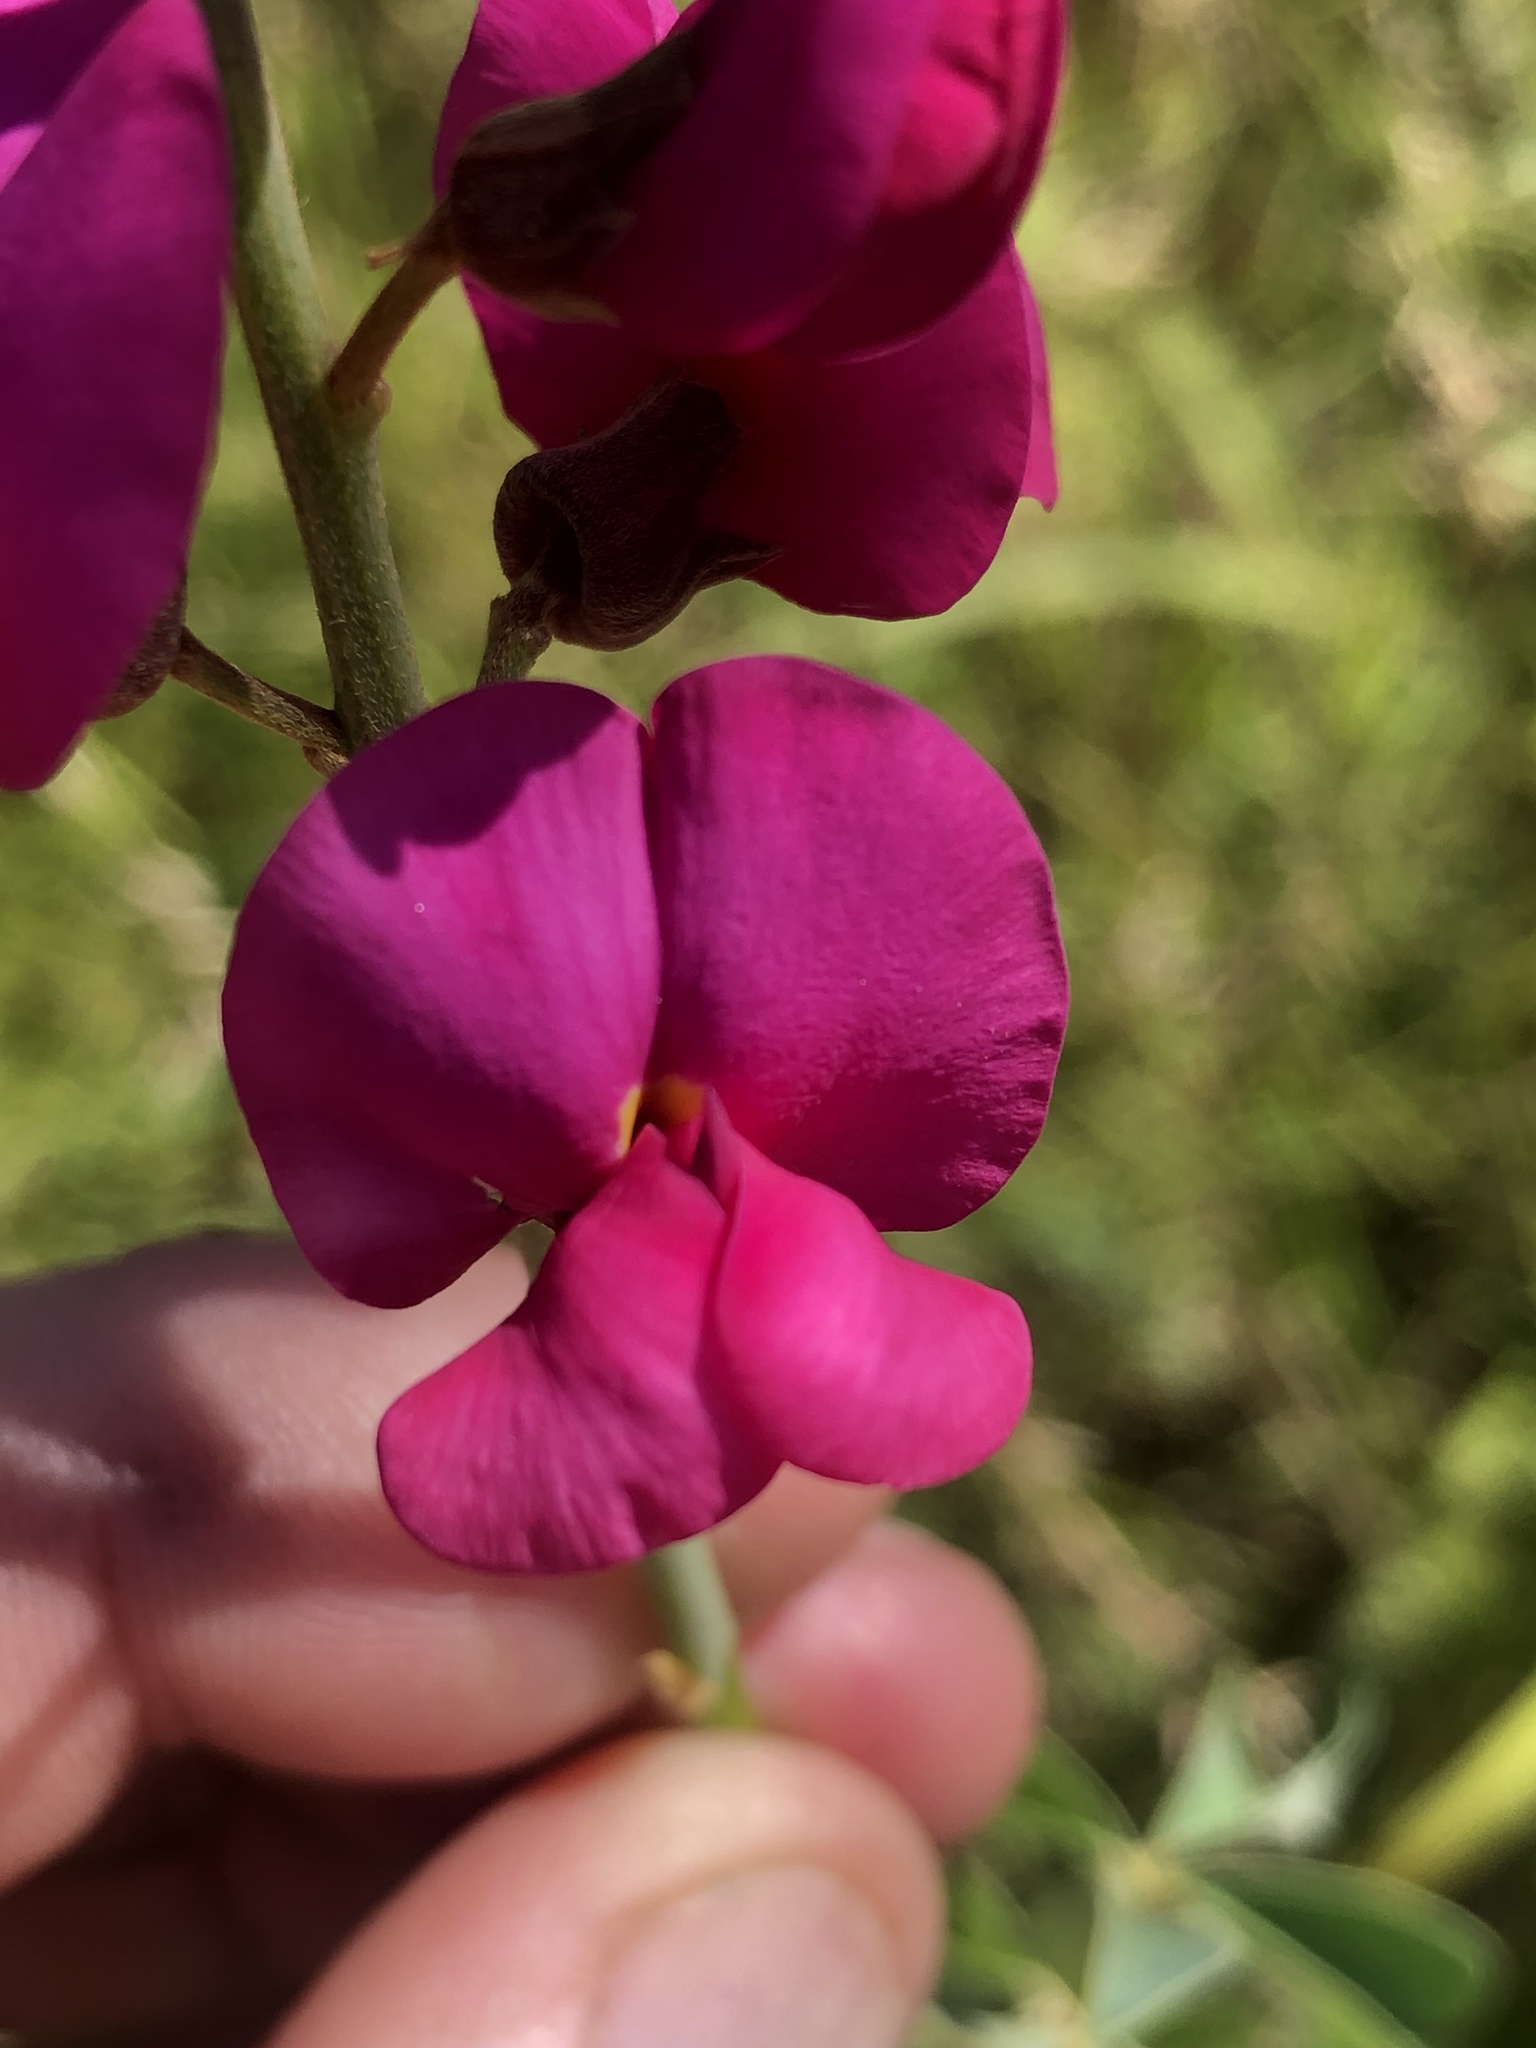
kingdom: Plantae
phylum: Tracheophyta
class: Magnoliopsida
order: Fabales
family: Fabaceae
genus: Hypocalyptus
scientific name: Hypocalyptus coluteoides
